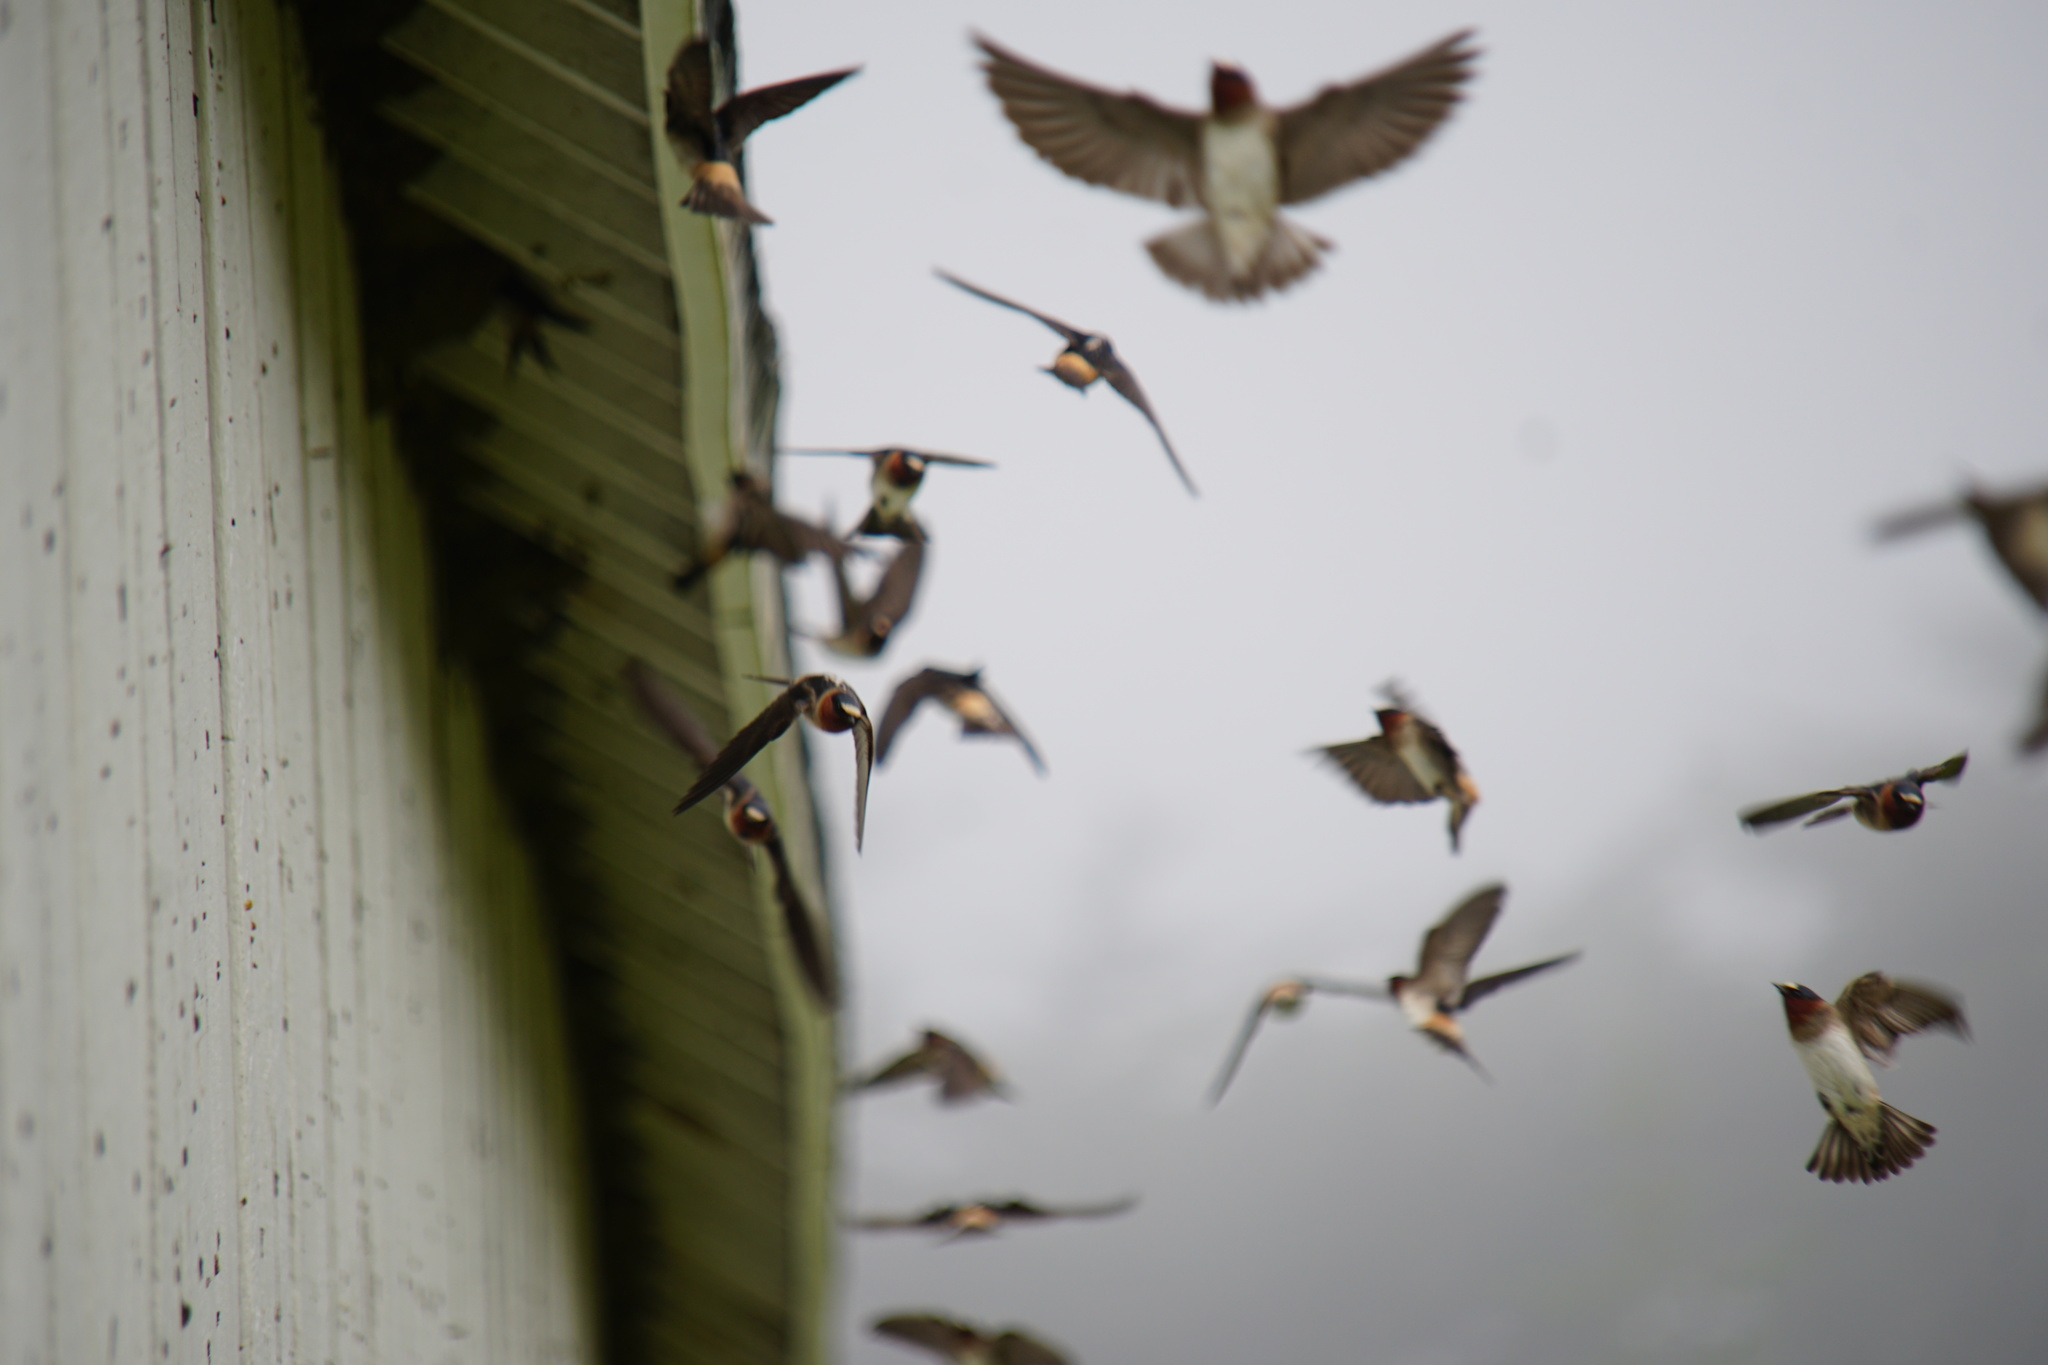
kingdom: Animalia
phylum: Chordata
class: Aves
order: Passeriformes
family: Hirundinidae
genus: Petrochelidon
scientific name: Petrochelidon pyrrhonota
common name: American cliff swallow
